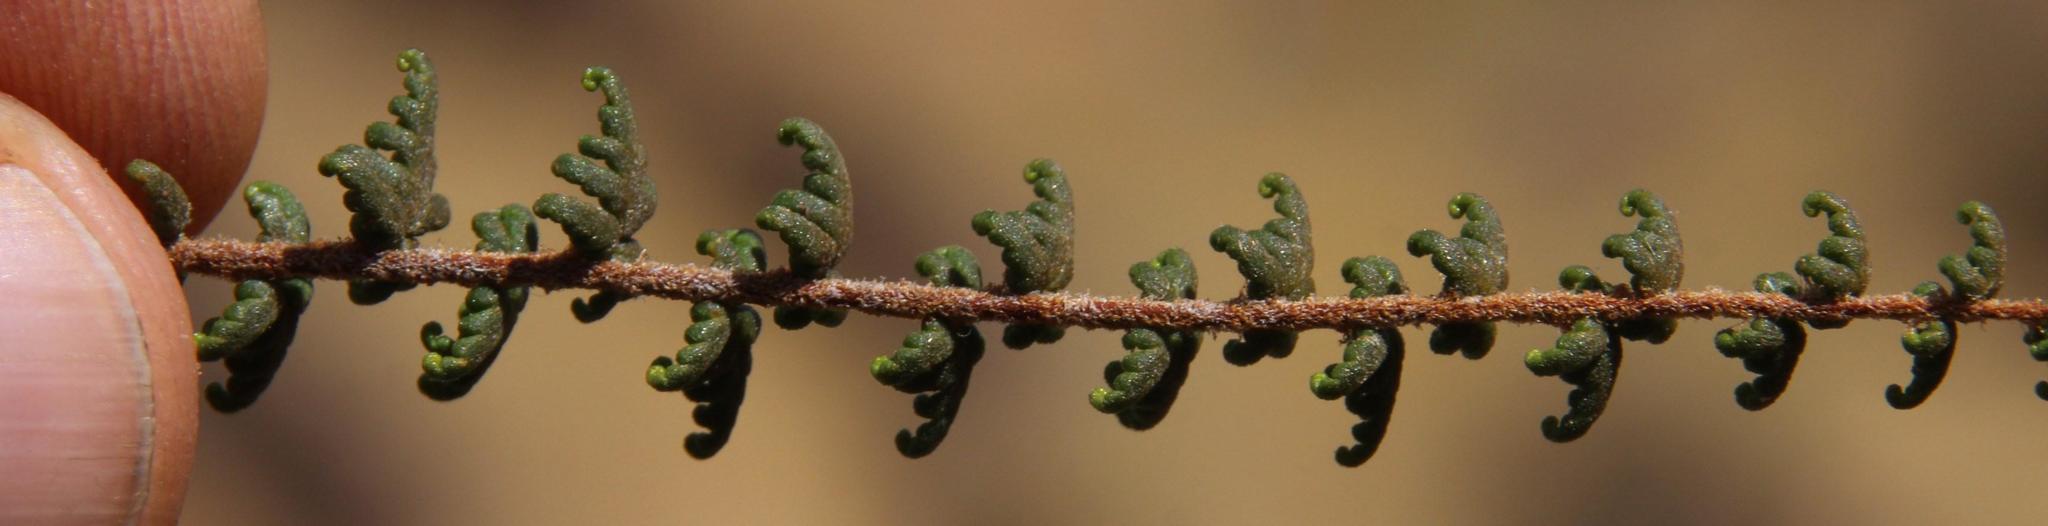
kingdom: Plantae
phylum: Tracheophyta
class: Polypodiopsida
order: Polypodiales
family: Pteridaceae
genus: Cheilanthes
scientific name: Cheilanthes pruinata
